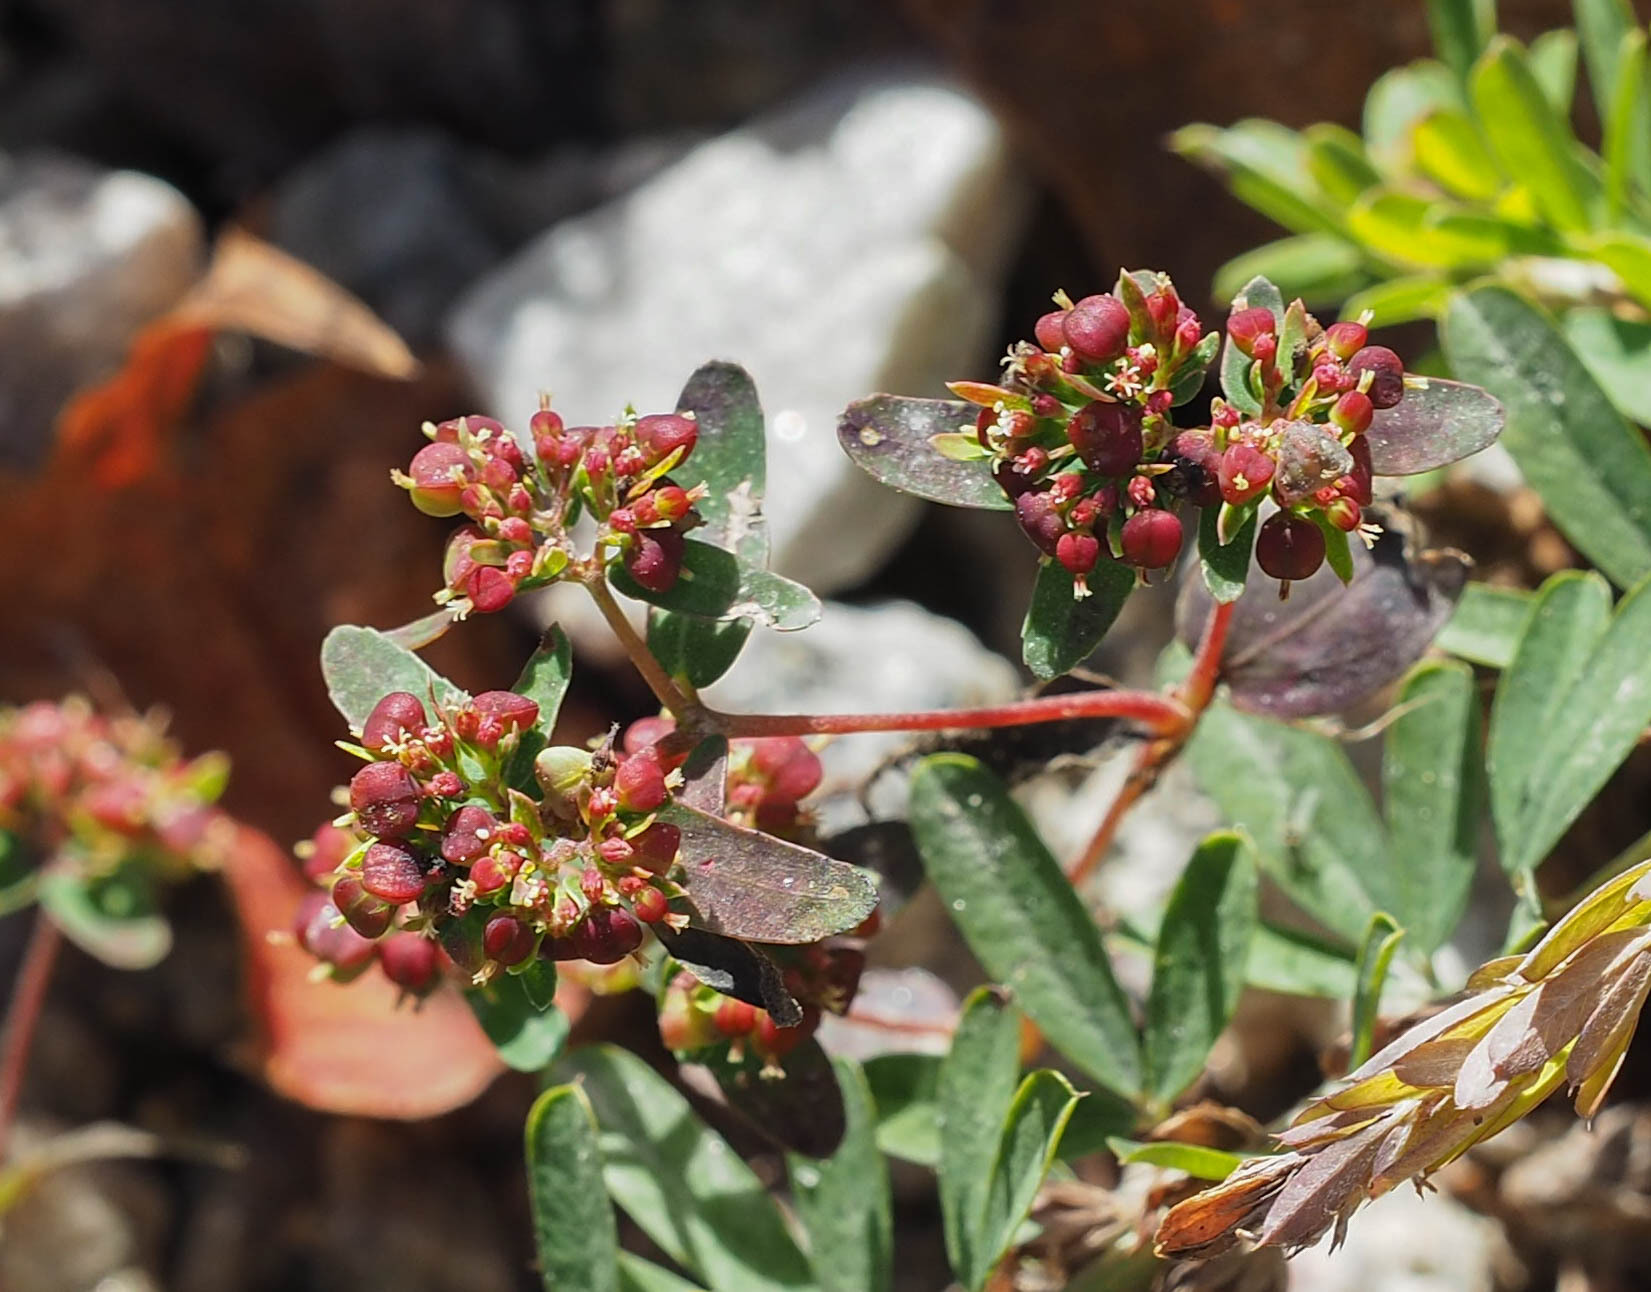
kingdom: Plantae
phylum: Tracheophyta
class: Magnoliopsida
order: Malpighiales
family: Euphorbiaceae
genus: Euphorbia
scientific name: Euphorbia nutans
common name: Eyebane
